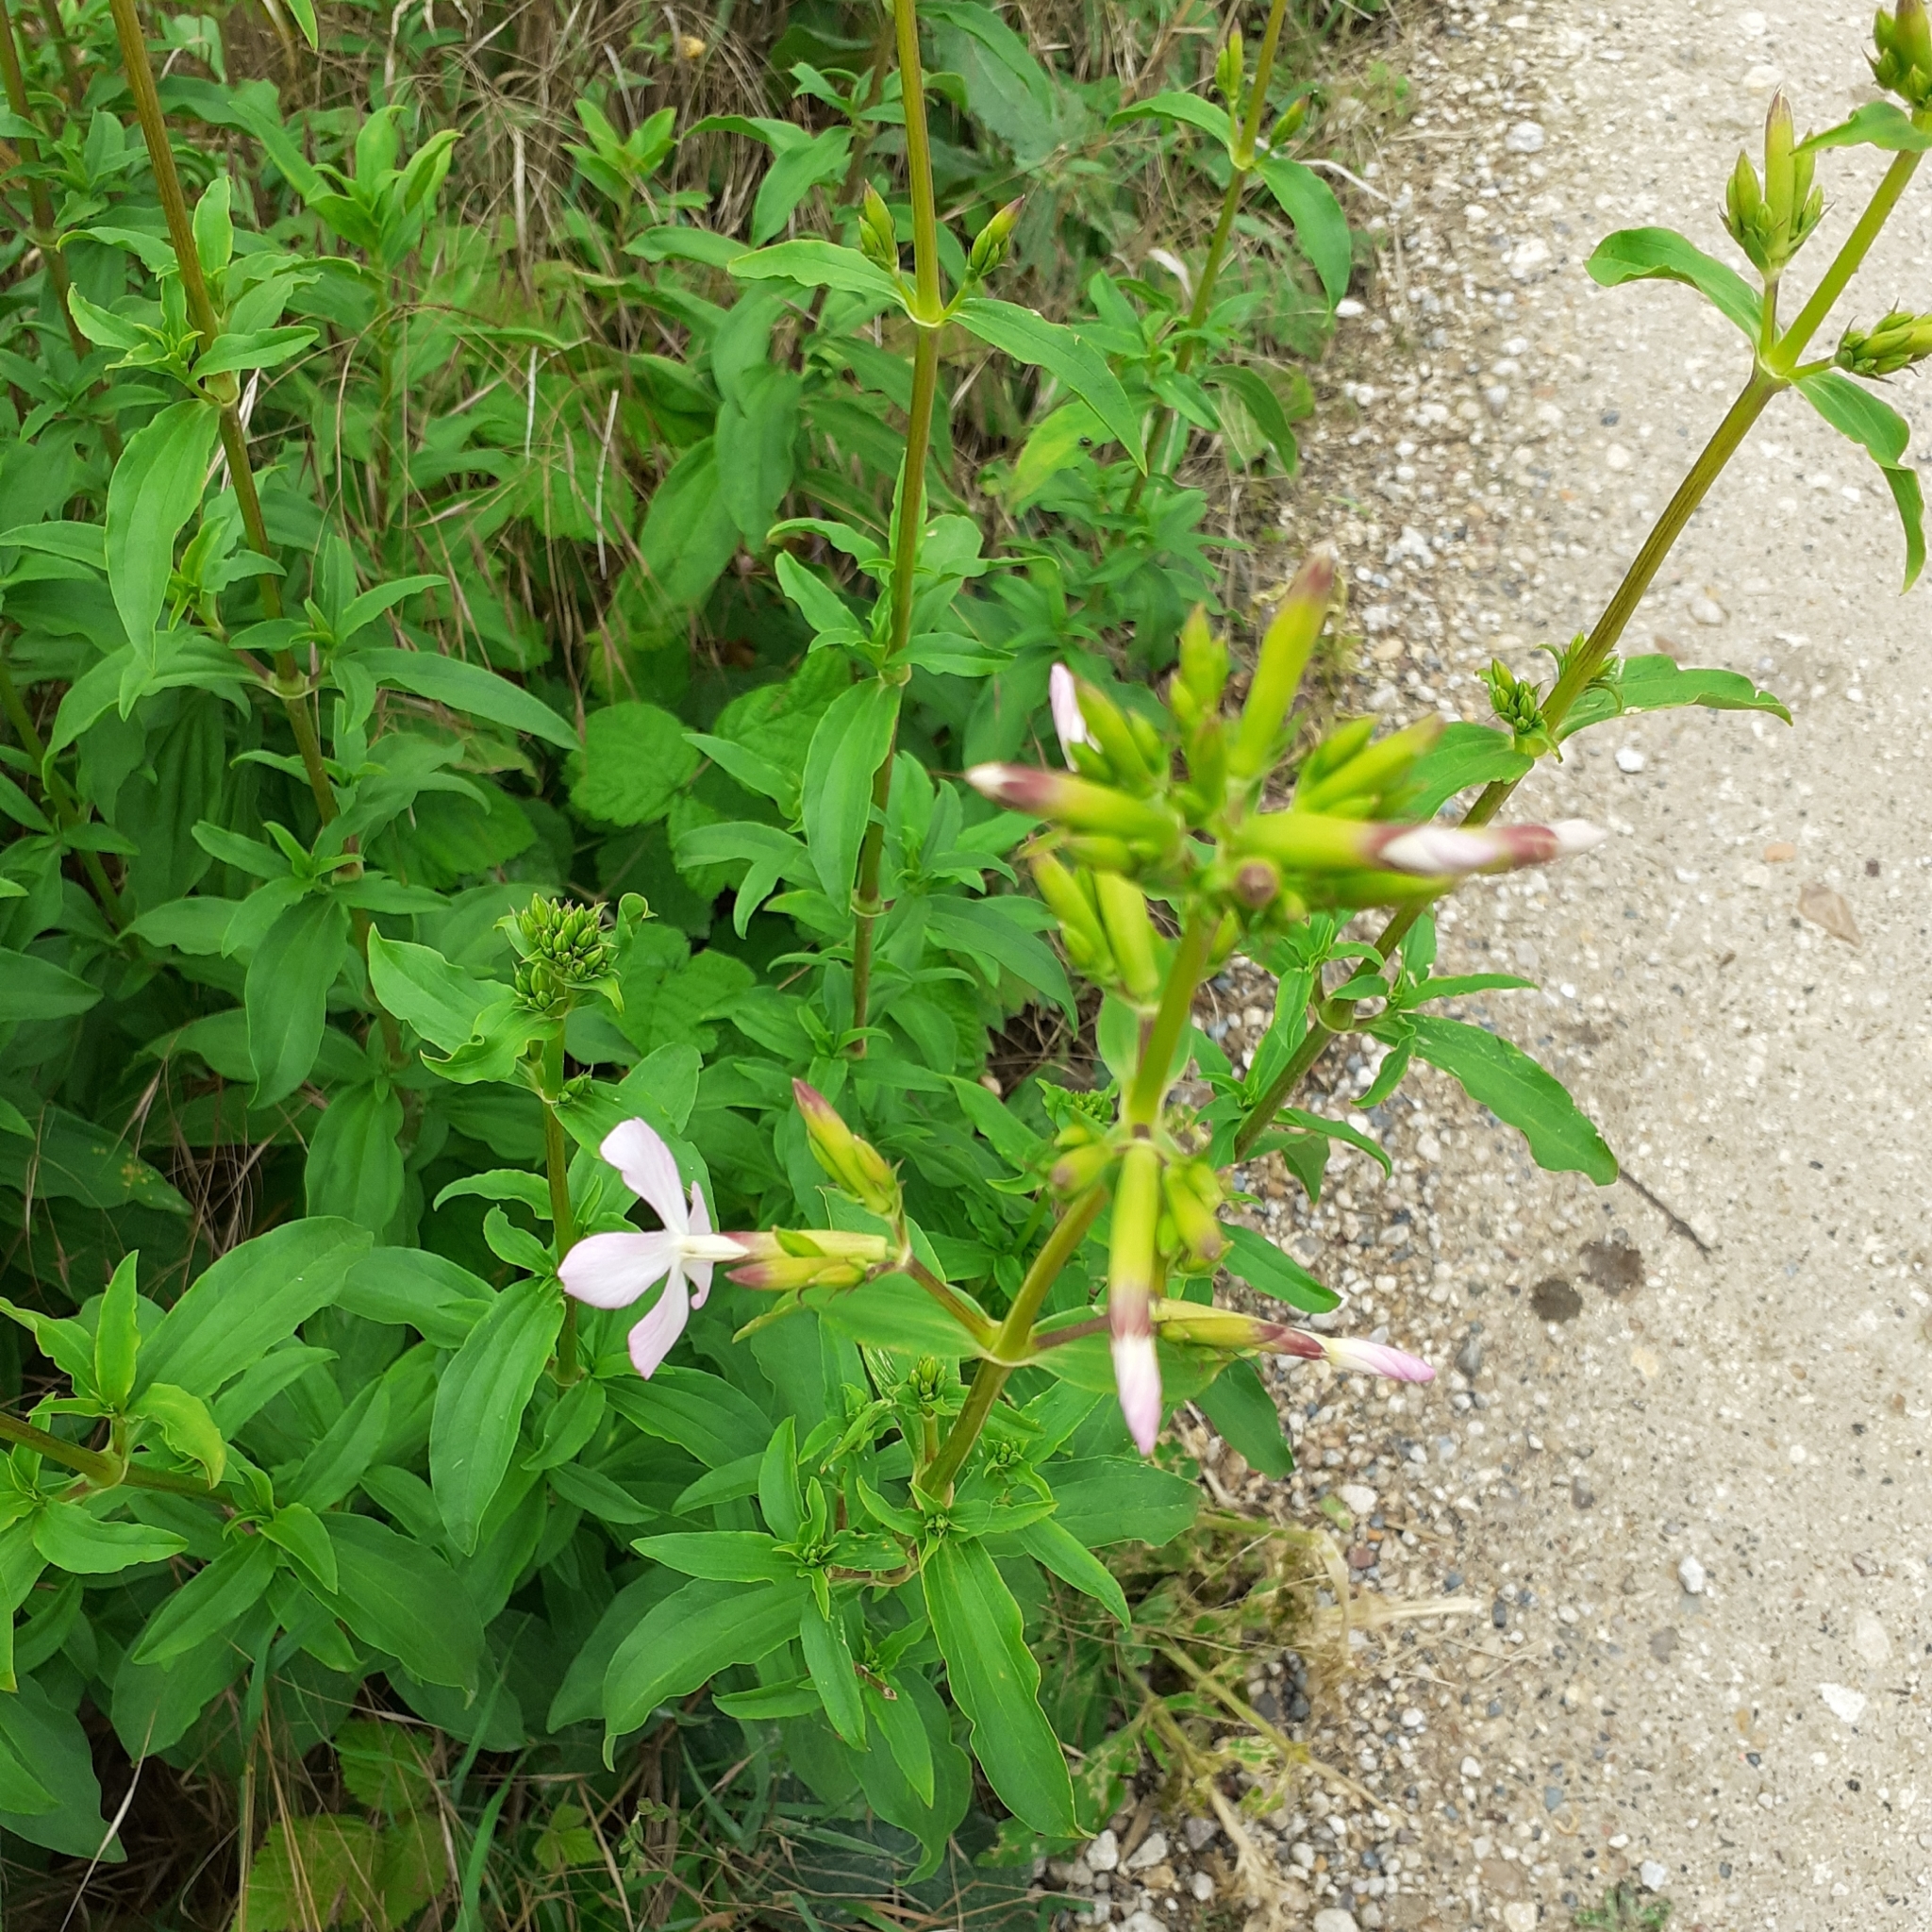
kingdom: Plantae
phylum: Tracheophyta
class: Magnoliopsida
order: Caryophyllales
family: Caryophyllaceae
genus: Saponaria
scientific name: Saponaria officinalis
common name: Soapwort
